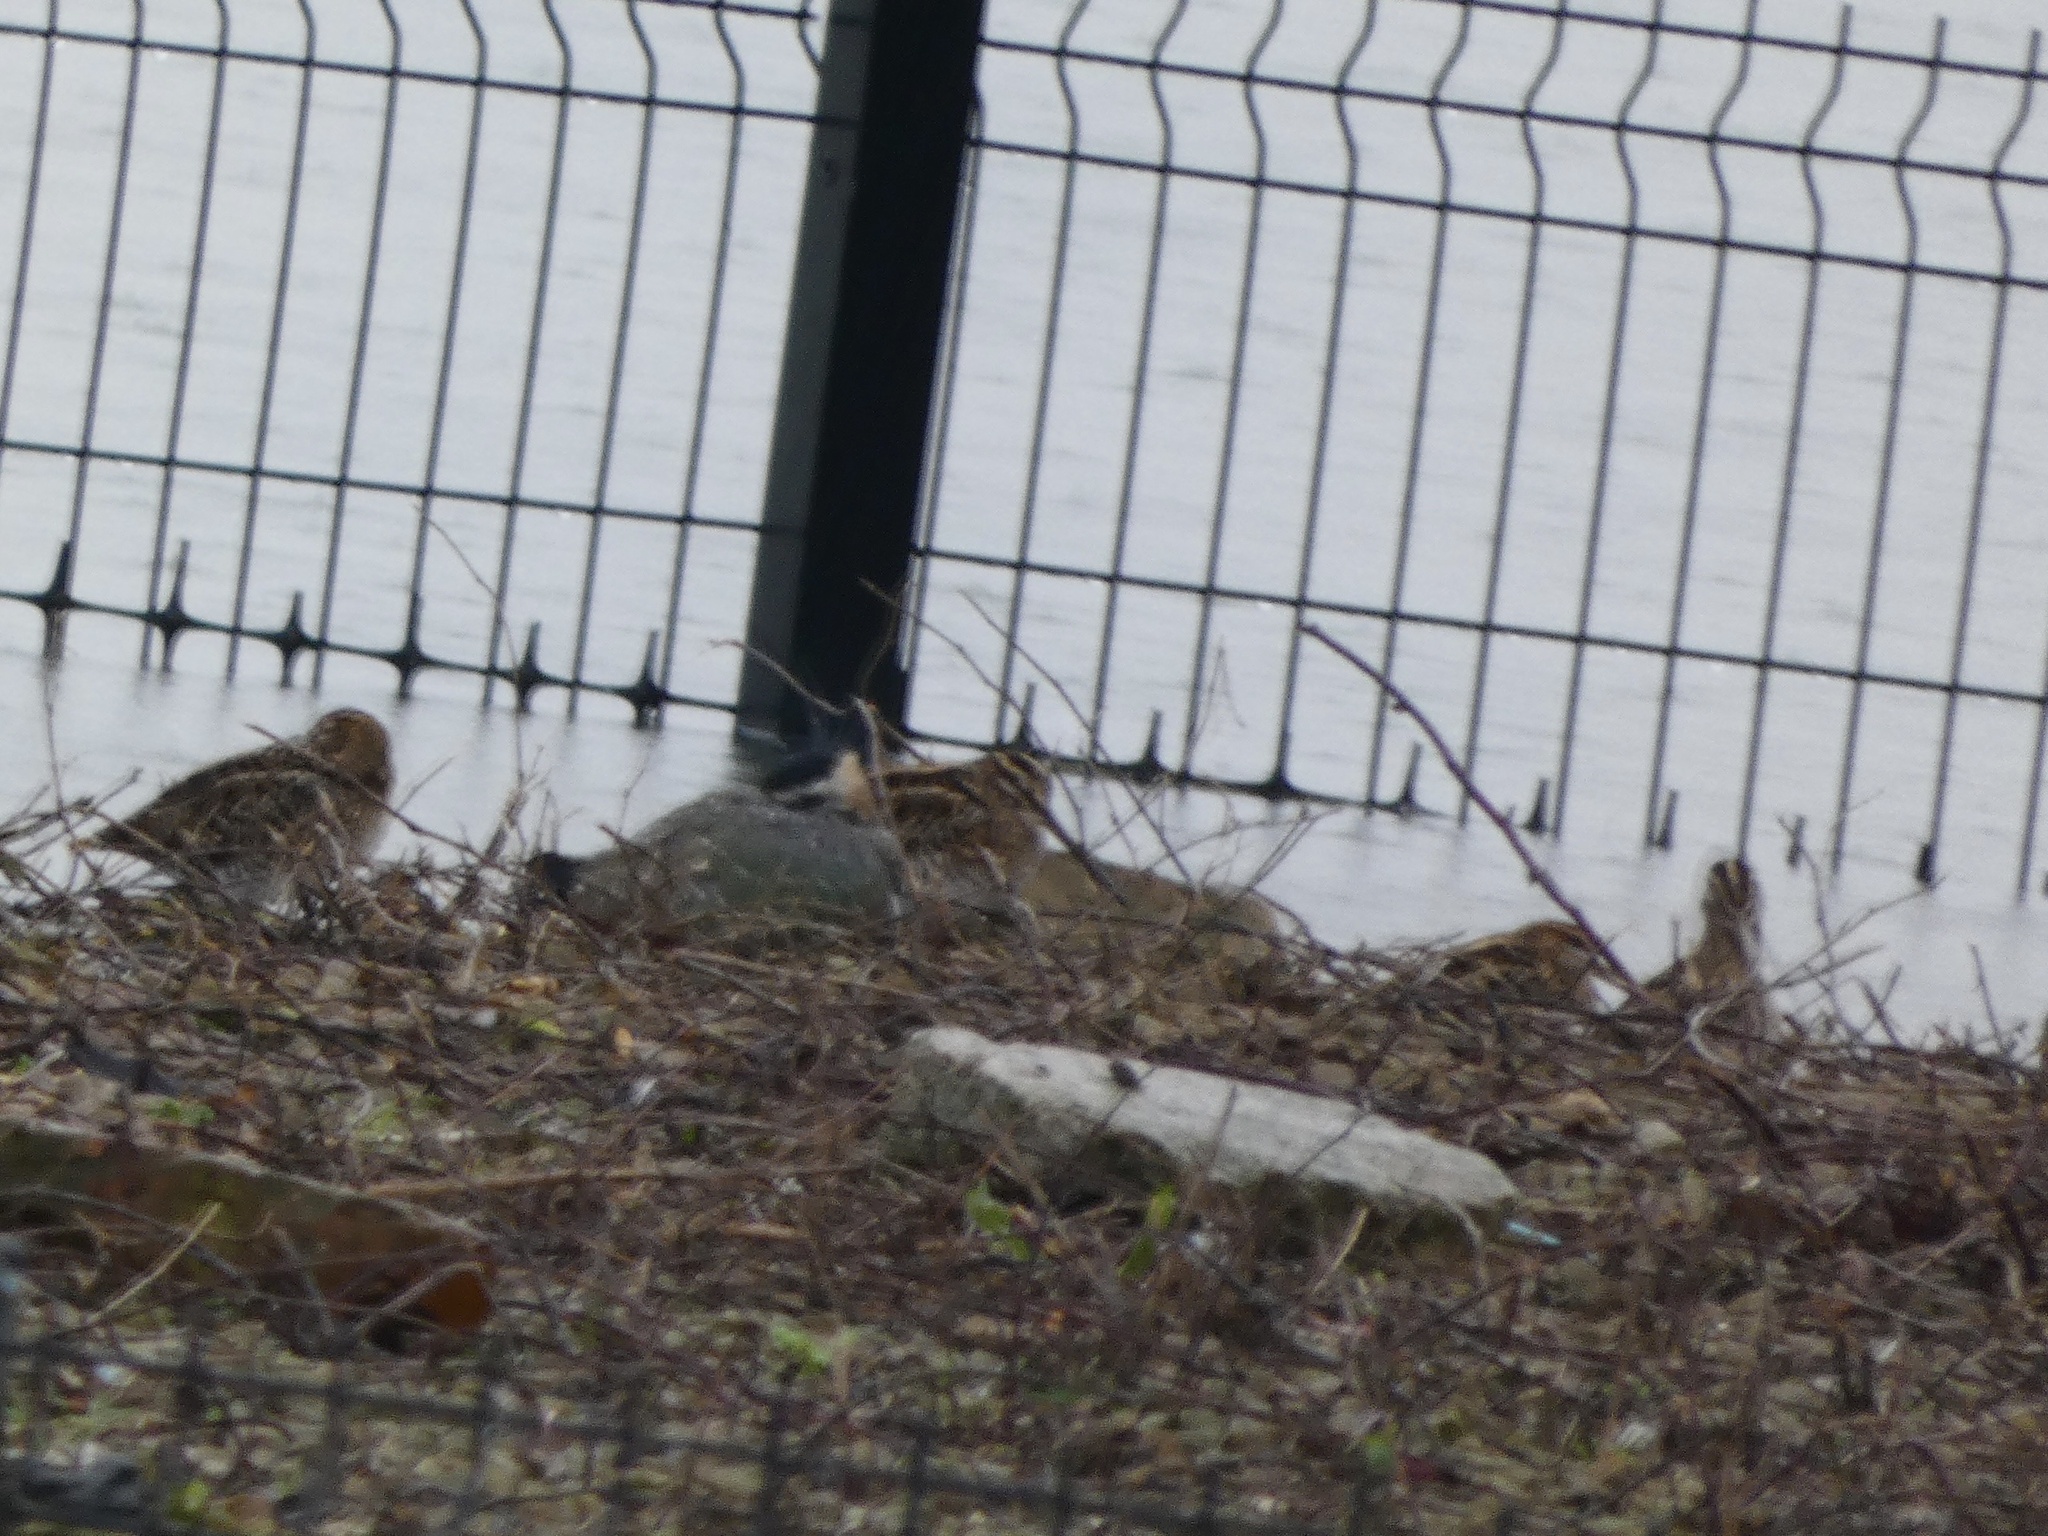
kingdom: Animalia
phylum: Chordata
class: Aves
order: Charadriiformes
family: Scolopacidae
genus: Gallinago
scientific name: Gallinago gallinago
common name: Common snipe
